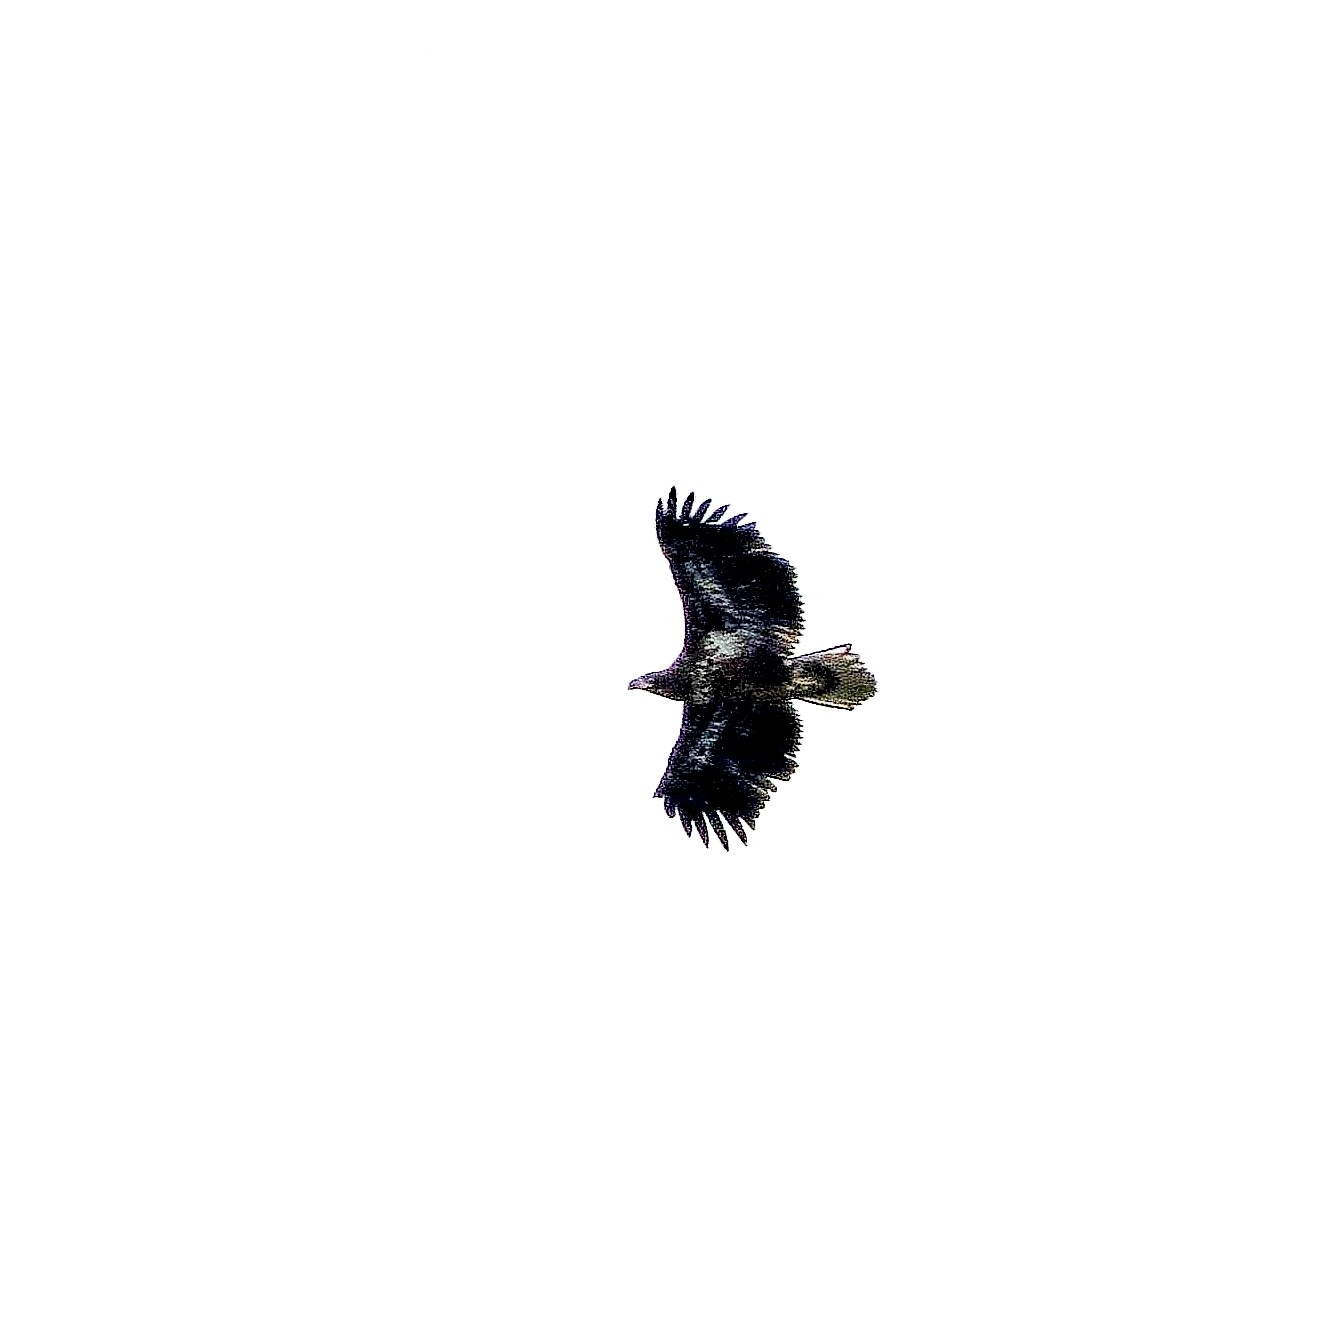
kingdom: Animalia
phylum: Chordata
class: Aves
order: Accipitriformes
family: Accipitridae
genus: Haliaeetus
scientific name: Haliaeetus albicilla
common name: White-tailed eagle
